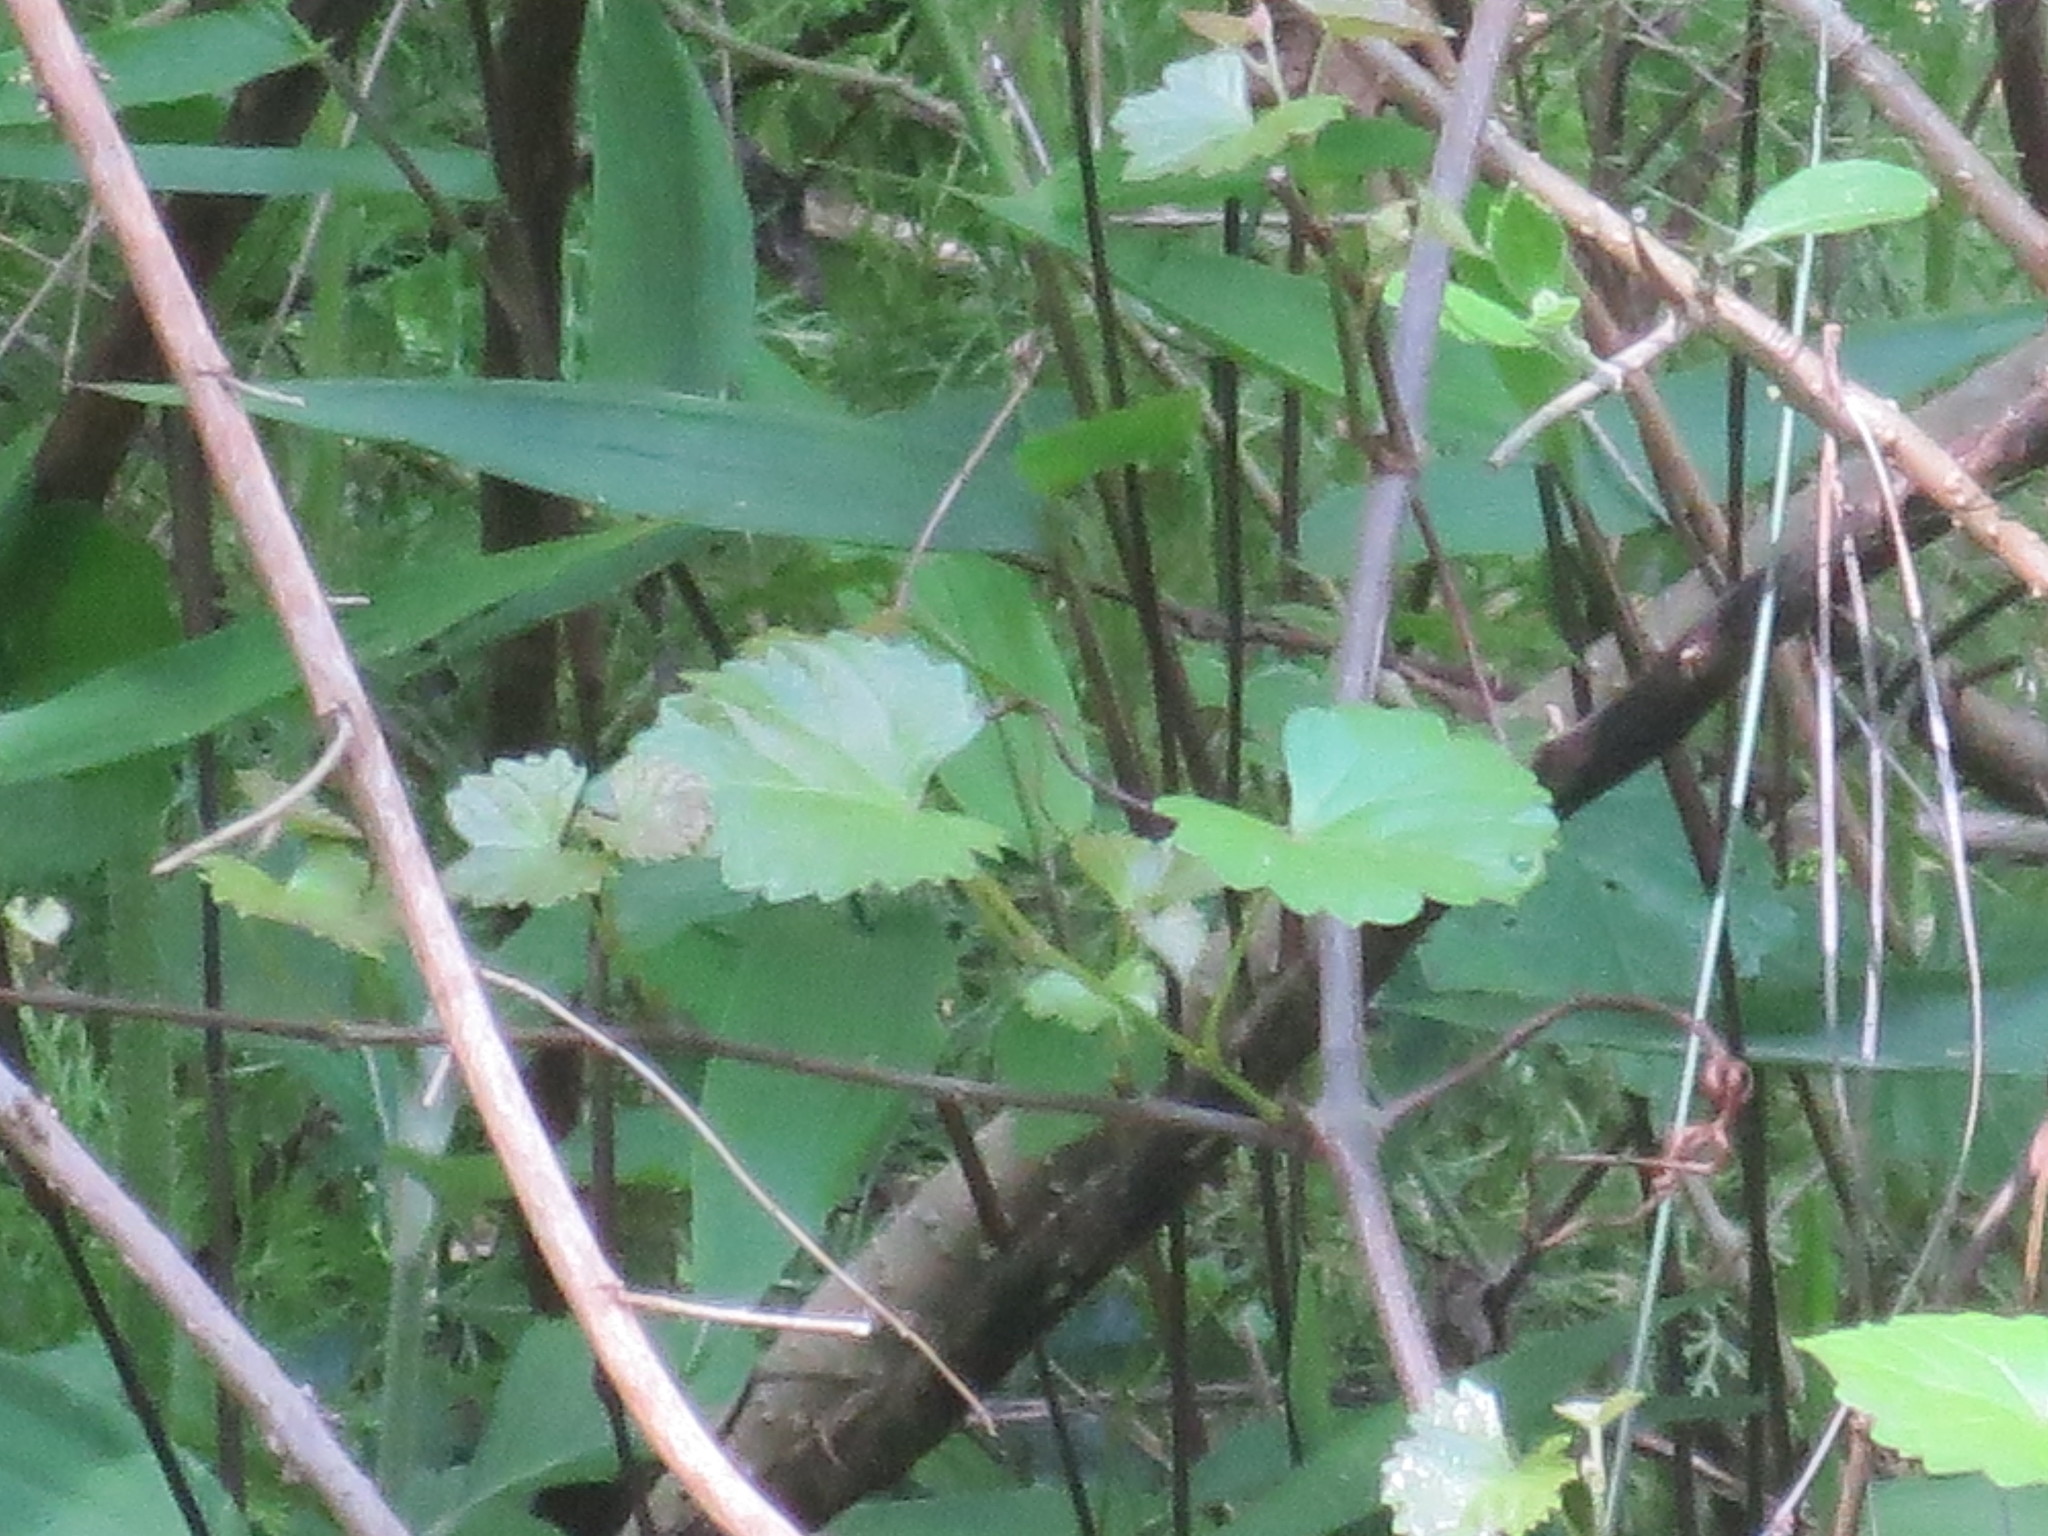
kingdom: Plantae
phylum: Tracheophyta
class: Magnoliopsida
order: Vitales
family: Vitaceae
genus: Vitis
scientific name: Vitis rotundifolia
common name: Muscadine grape
